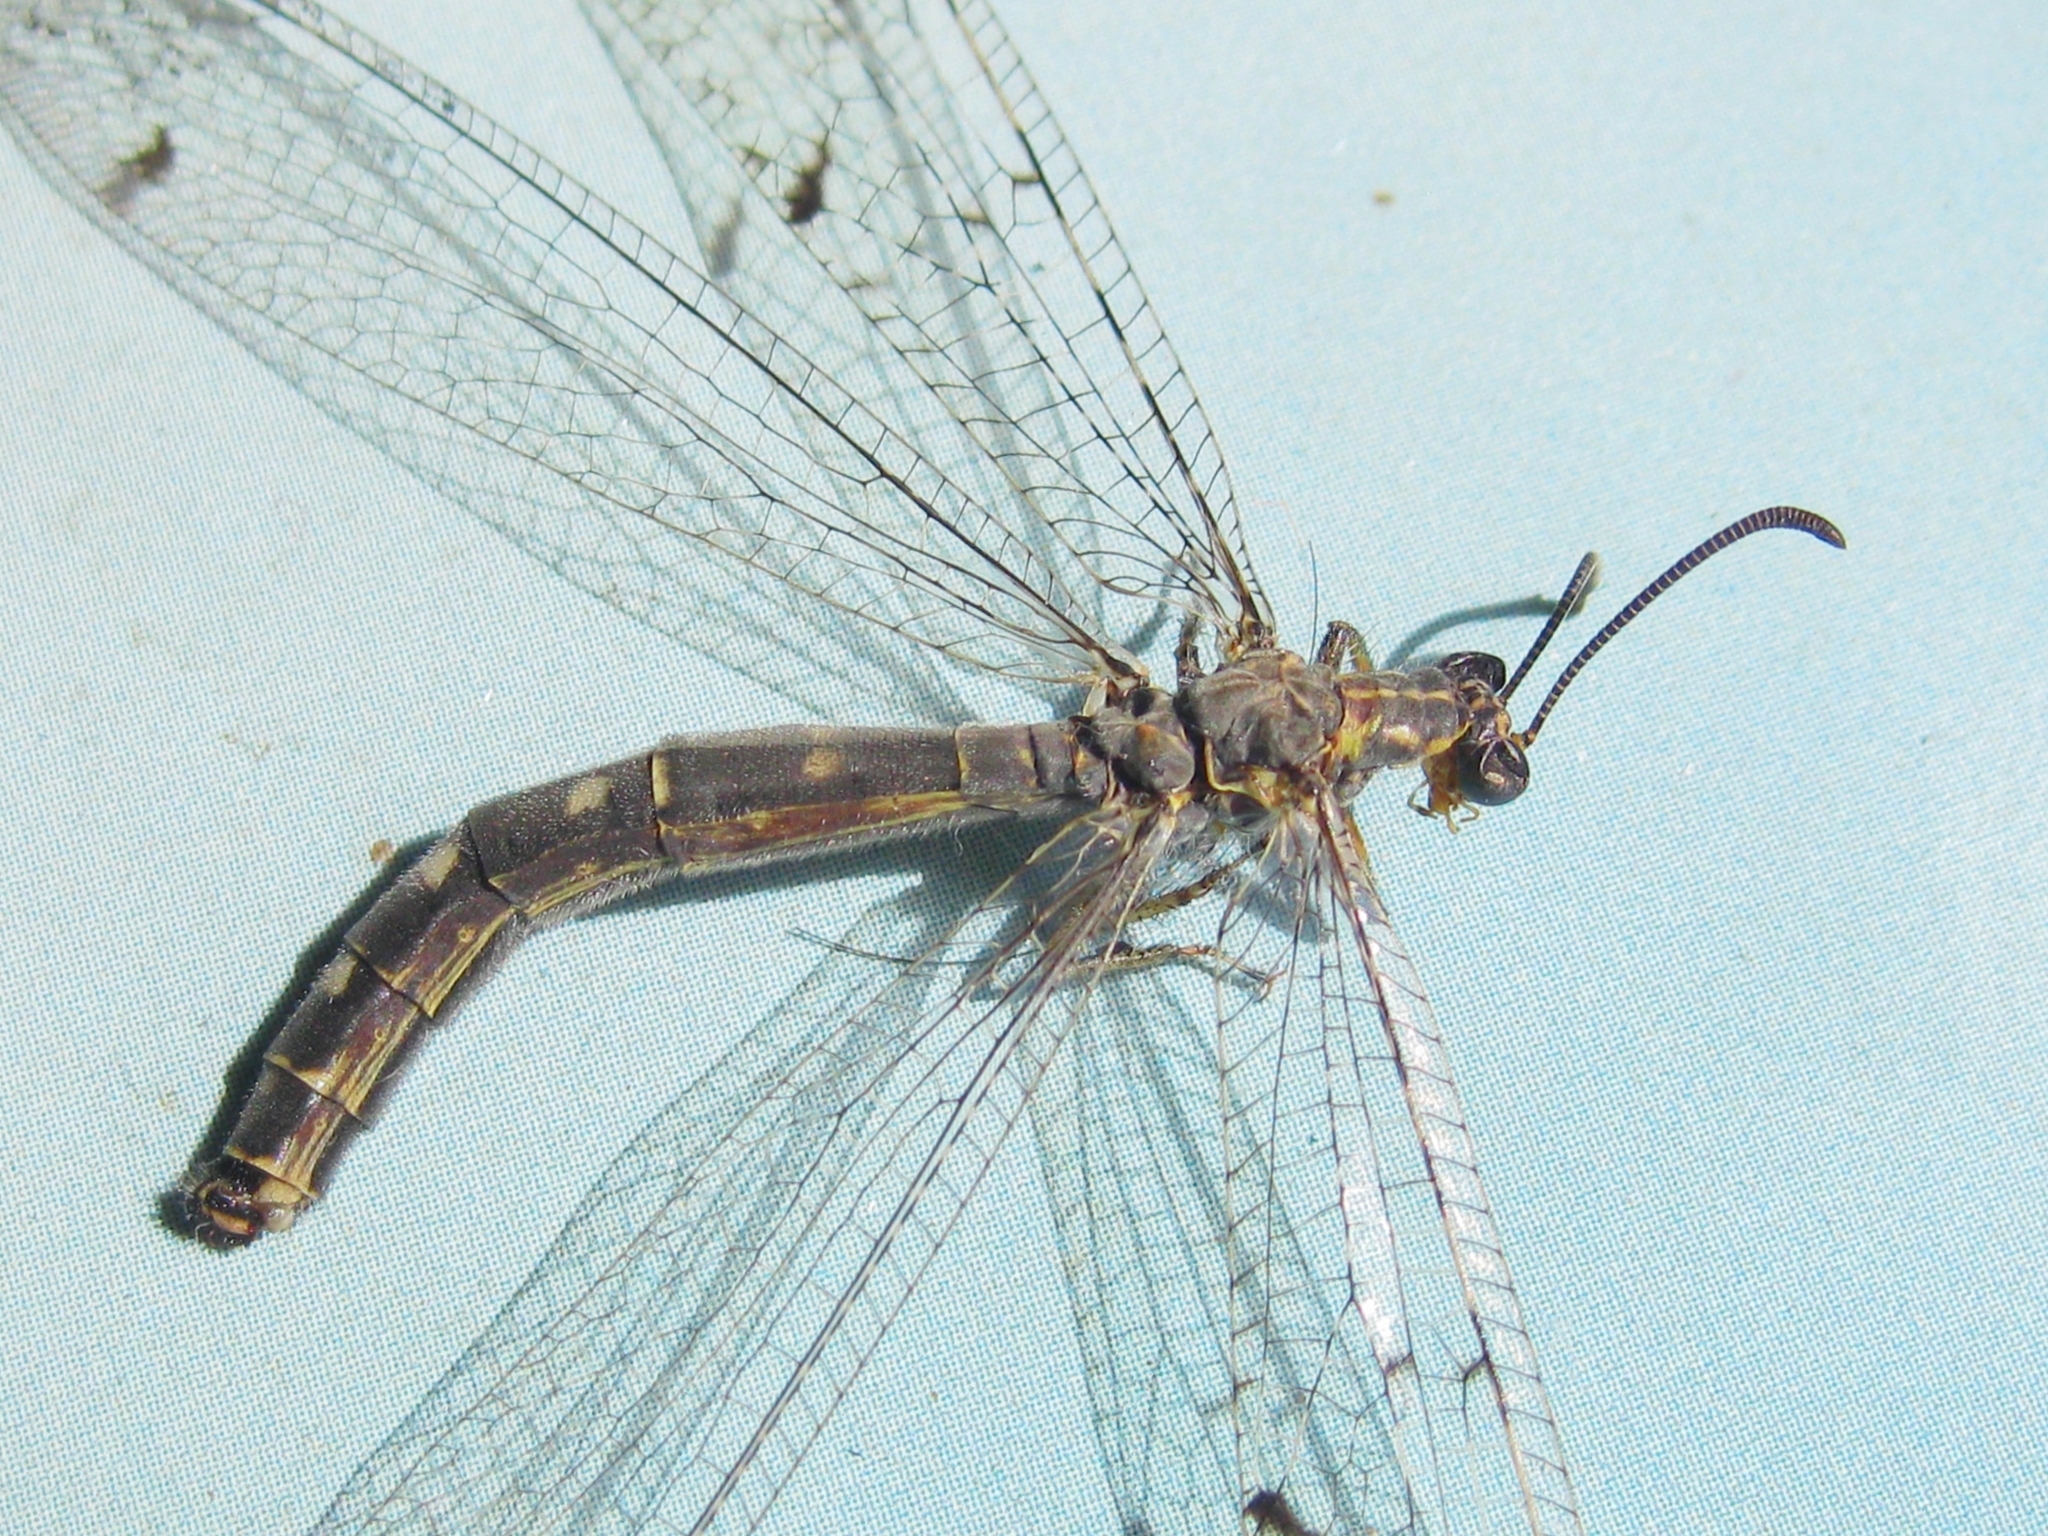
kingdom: Animalia
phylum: Arthropoda
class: Insecta
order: Neuroptera
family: Myrmeleontidae
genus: Distoleon
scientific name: Distoleon tetragrammicus
